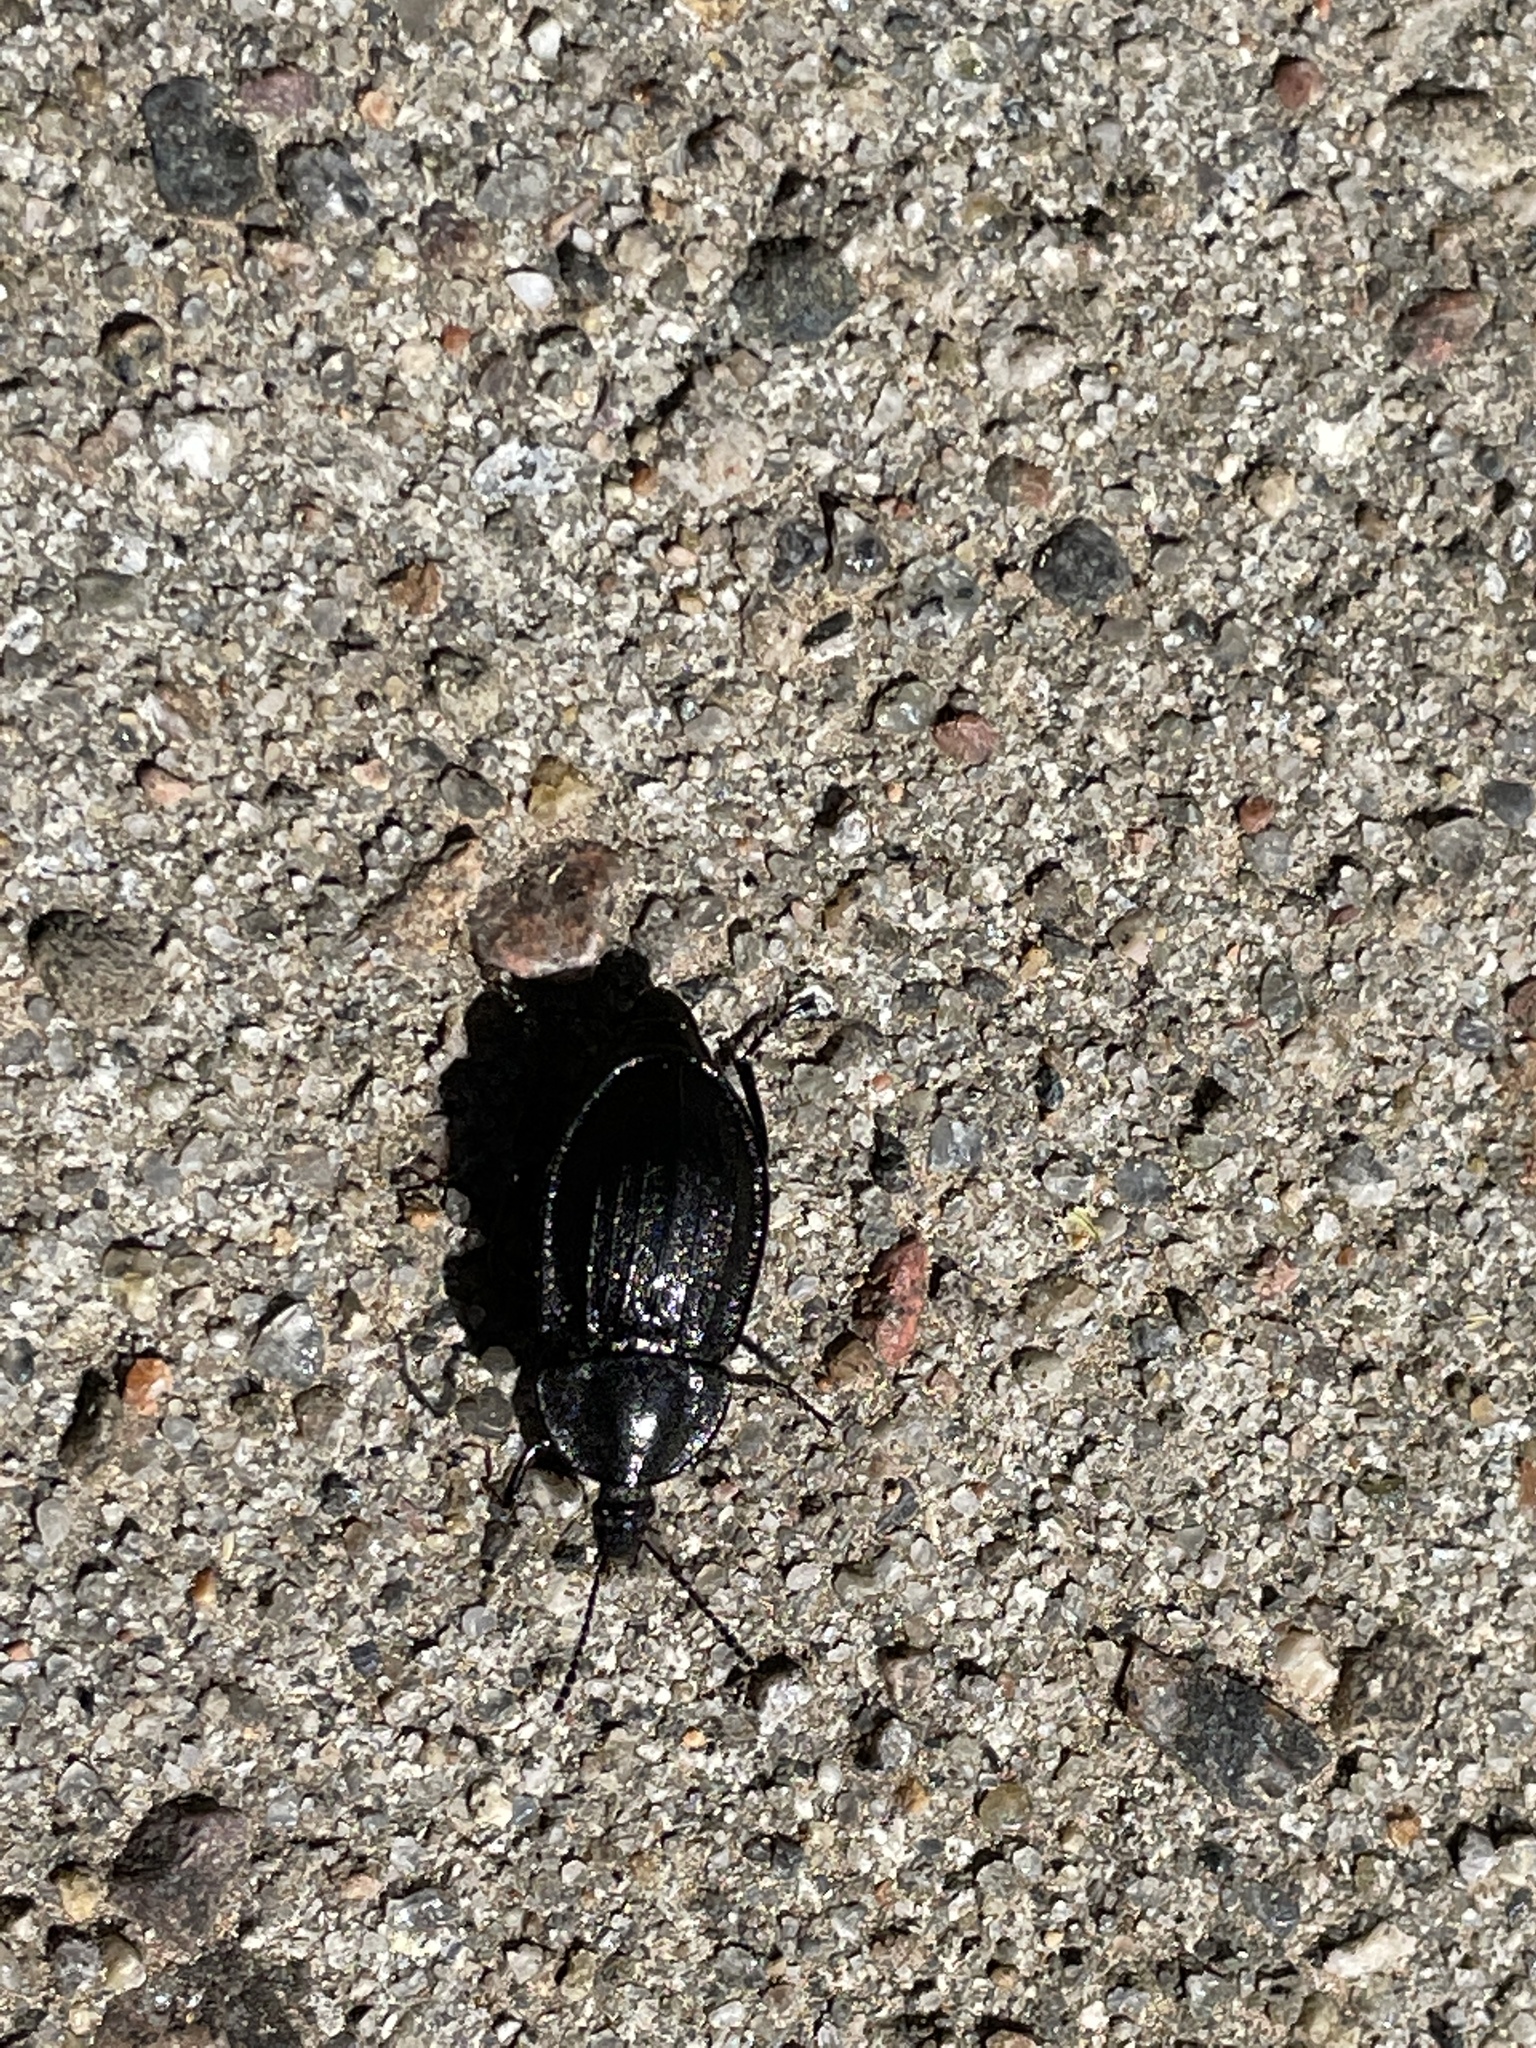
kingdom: Animalia
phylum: Arthropoda
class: Insecta
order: Coleoptera
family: Staphylinidae
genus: Silpha
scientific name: Silpha atrata
